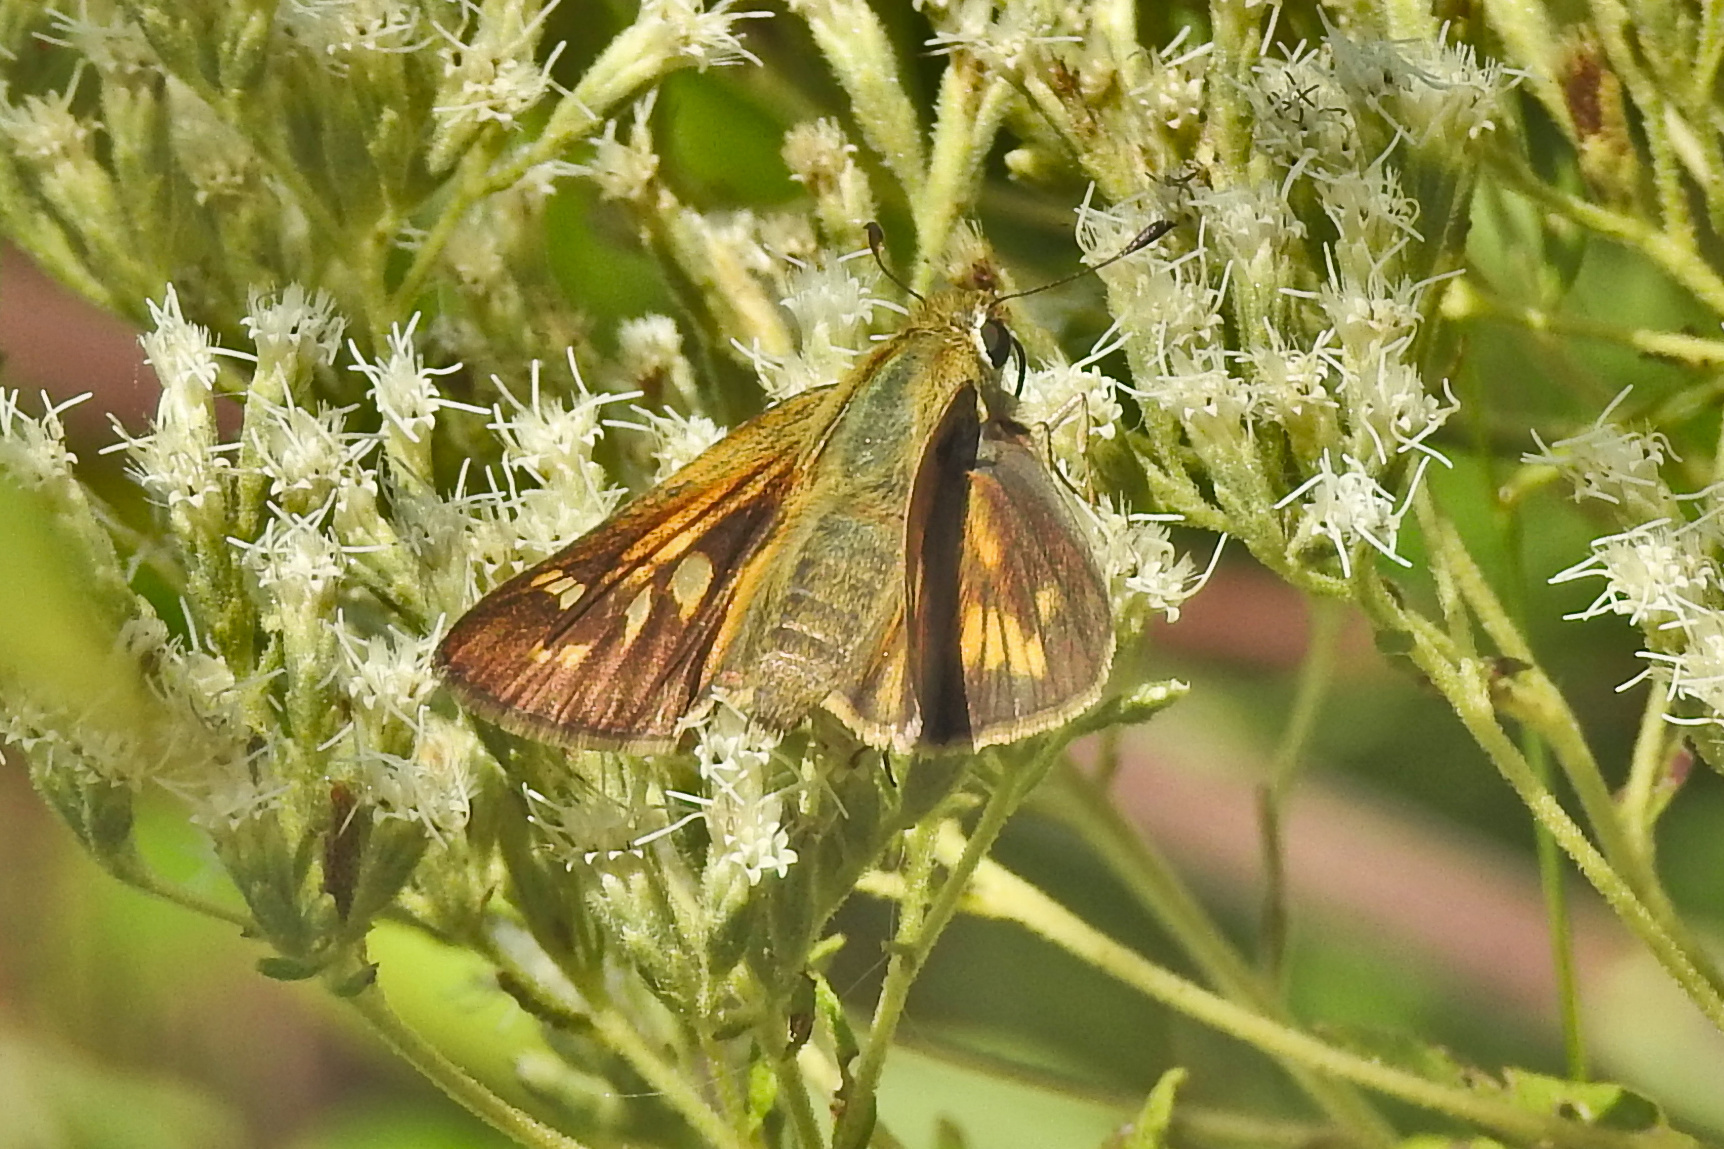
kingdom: Animalia
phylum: Arthropoda
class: Insecta
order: Lepidoptera
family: Hesperiidae
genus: Atalopedes
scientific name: Atalopedes
